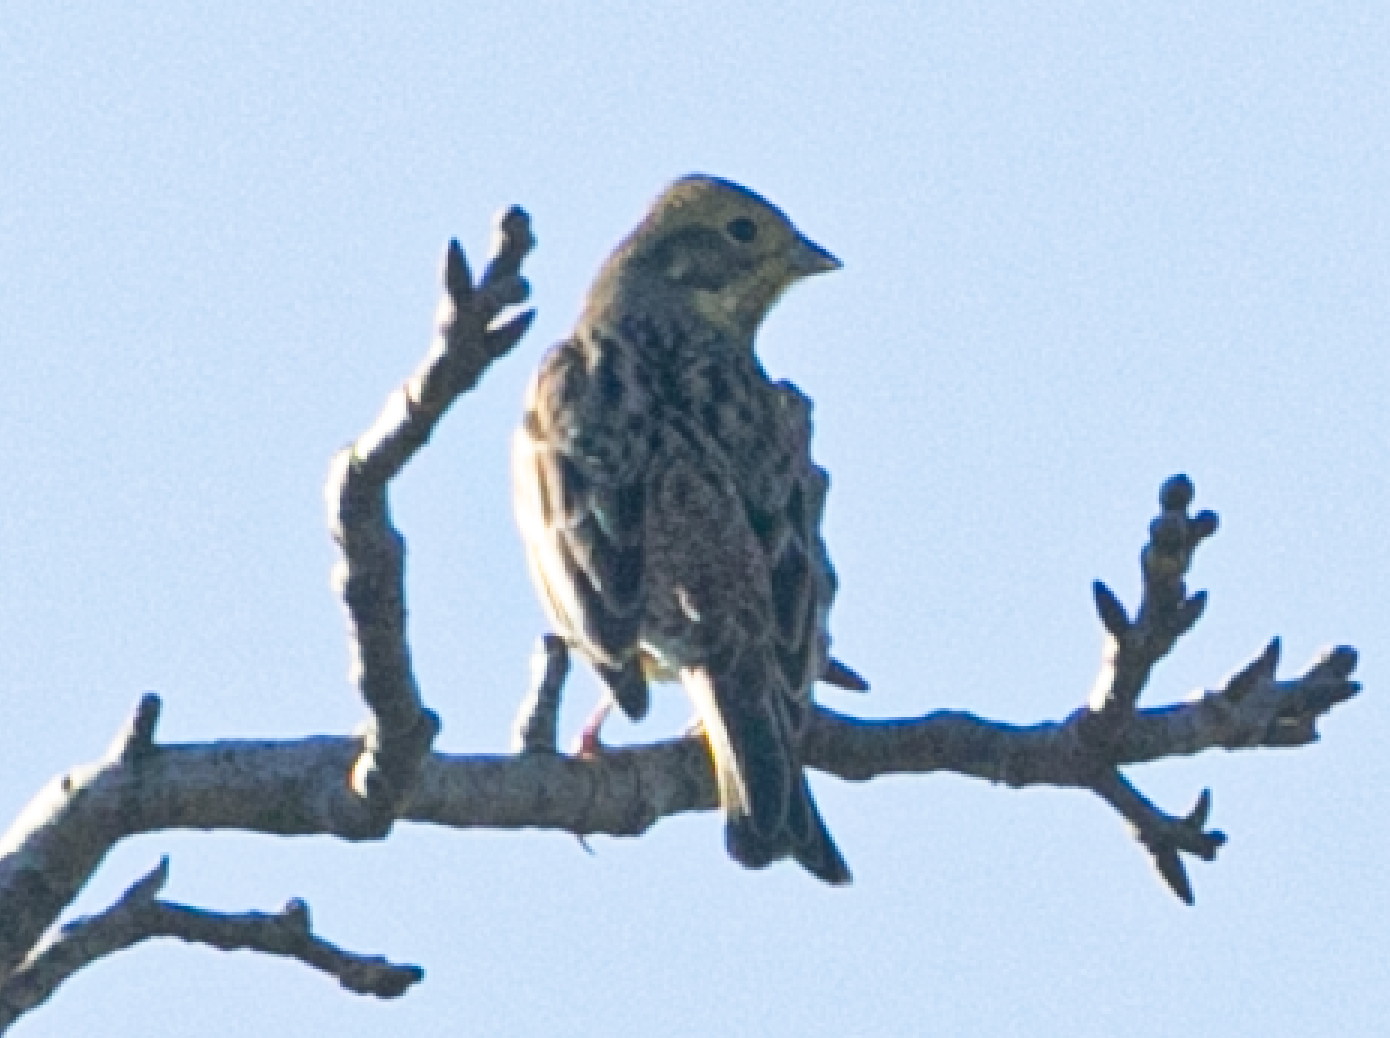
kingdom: Animalia
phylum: Chordata
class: Aves
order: Passeriformes
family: Emberizidae
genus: Emberiza
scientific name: Emberiza citrinella
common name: Yellowhammer
